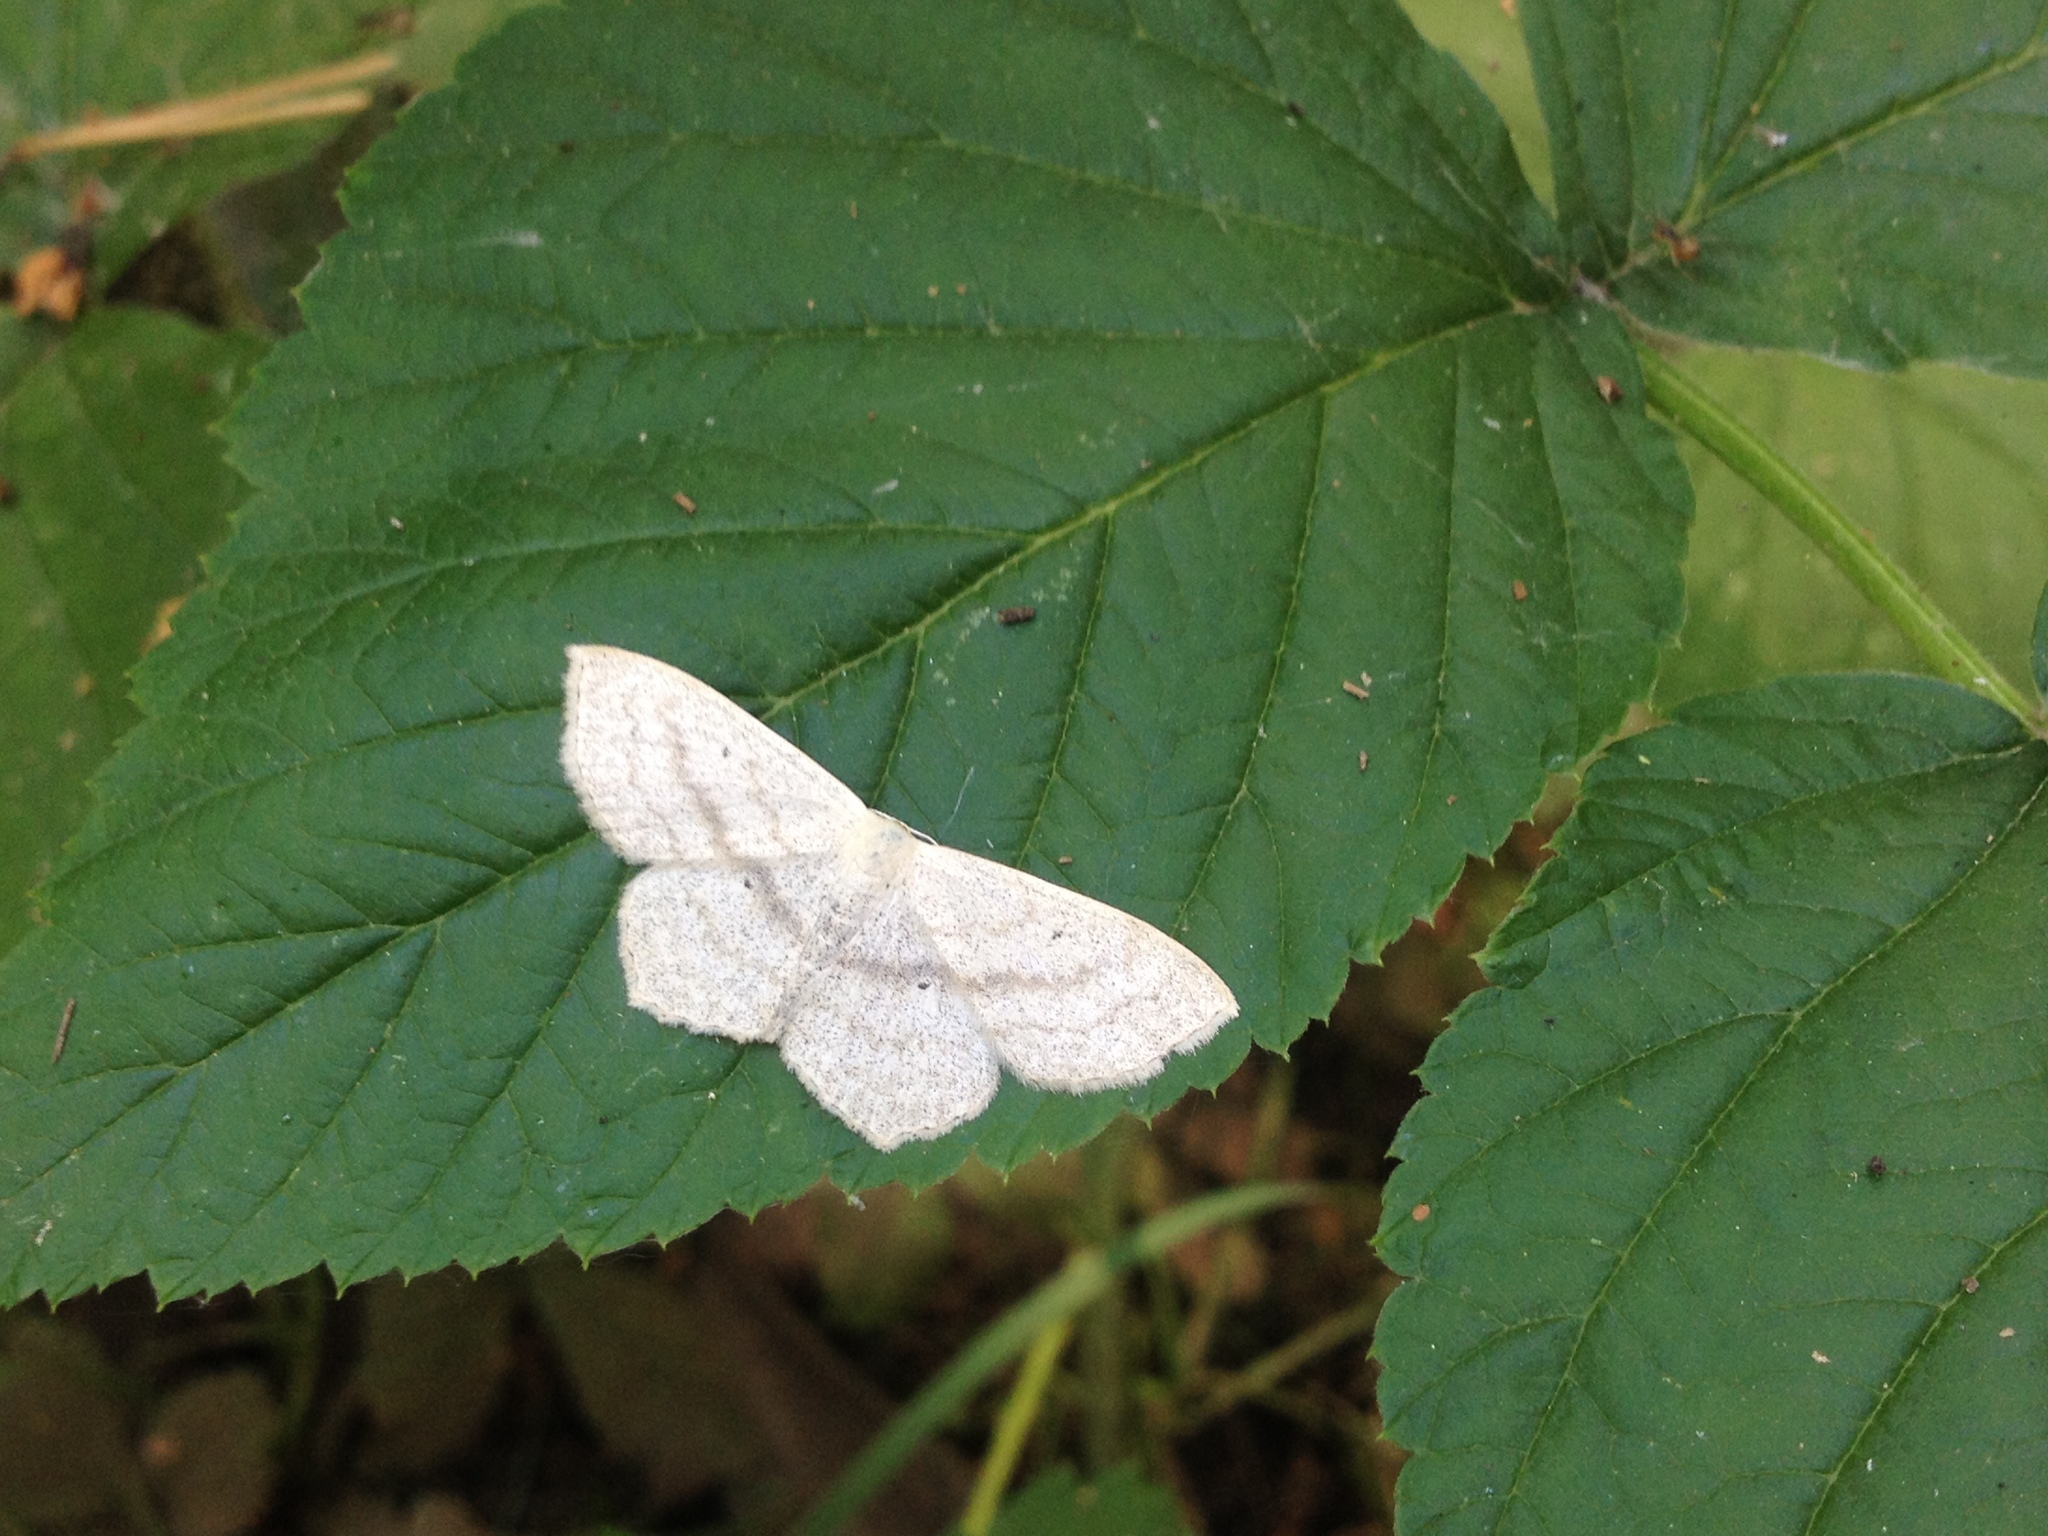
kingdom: Animalia
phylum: Arthropoda
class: Insecta
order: Lepidoptera
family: Geometridae
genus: Scopula
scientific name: Scopula nigropunctata
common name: Sub-angled wave
